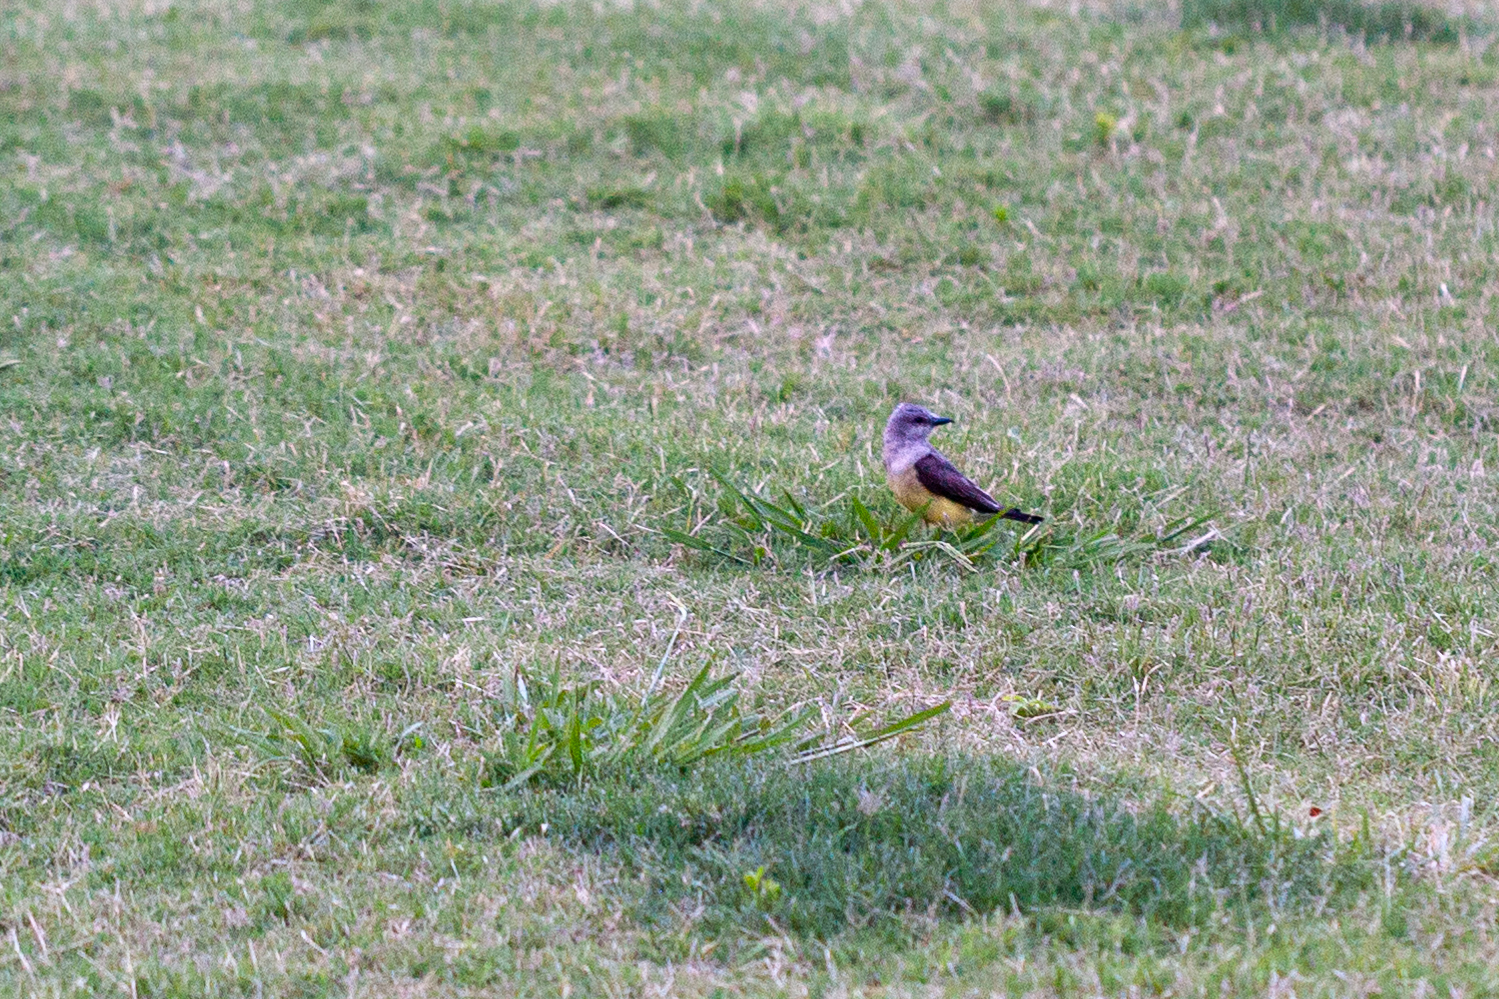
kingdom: Animalia
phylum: Chordata
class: Aves
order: Passeriformes
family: Tyrannidae
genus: Tyrannus
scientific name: Tyrannus verticalis
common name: Western kingbird
